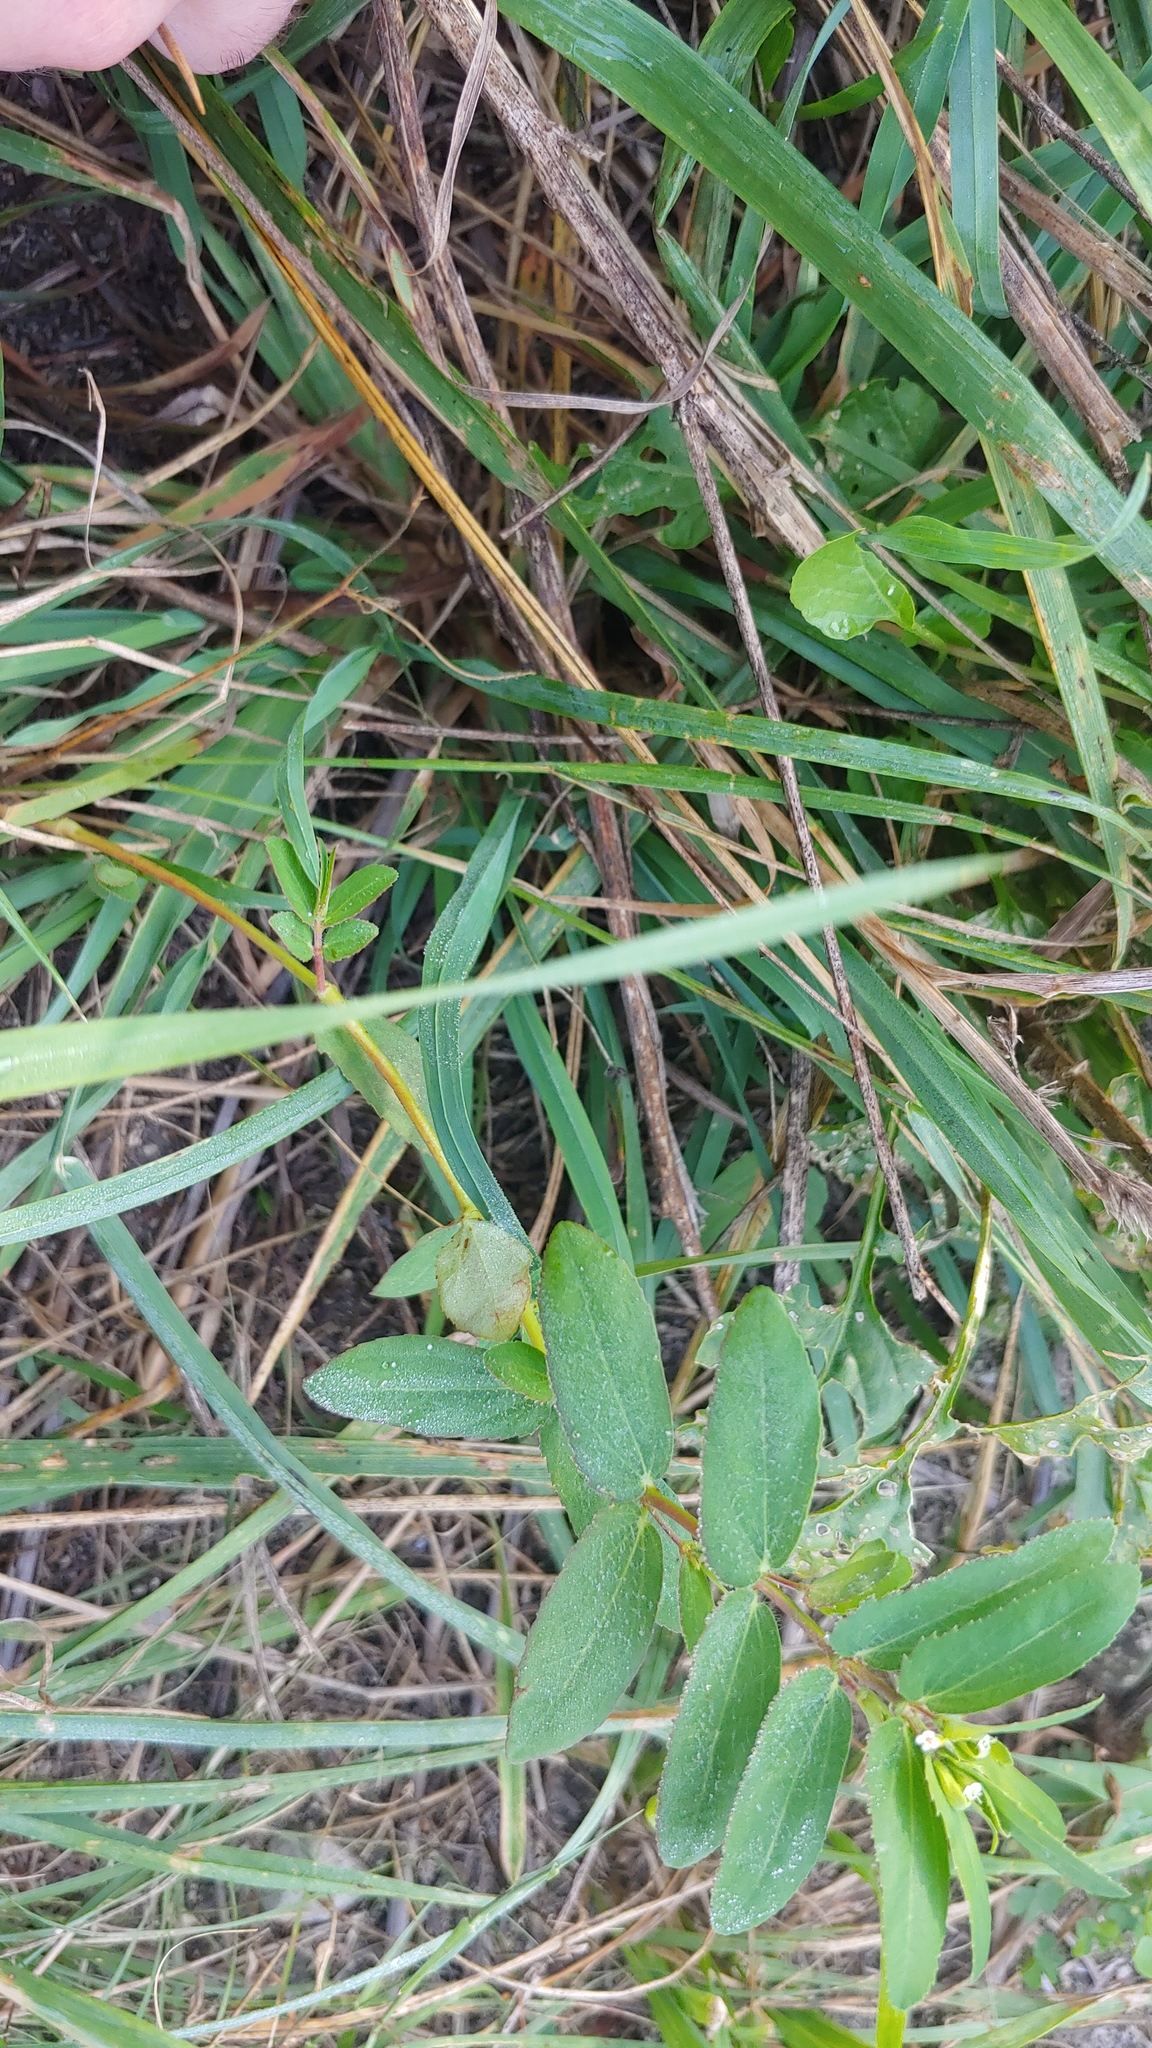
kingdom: Plantae
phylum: Tracheophyta
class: Magnoliopsida
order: Malpighiales
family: Euphorbiaceae
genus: Euphorbia
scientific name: Euphorbia nutans
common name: Eyebane
